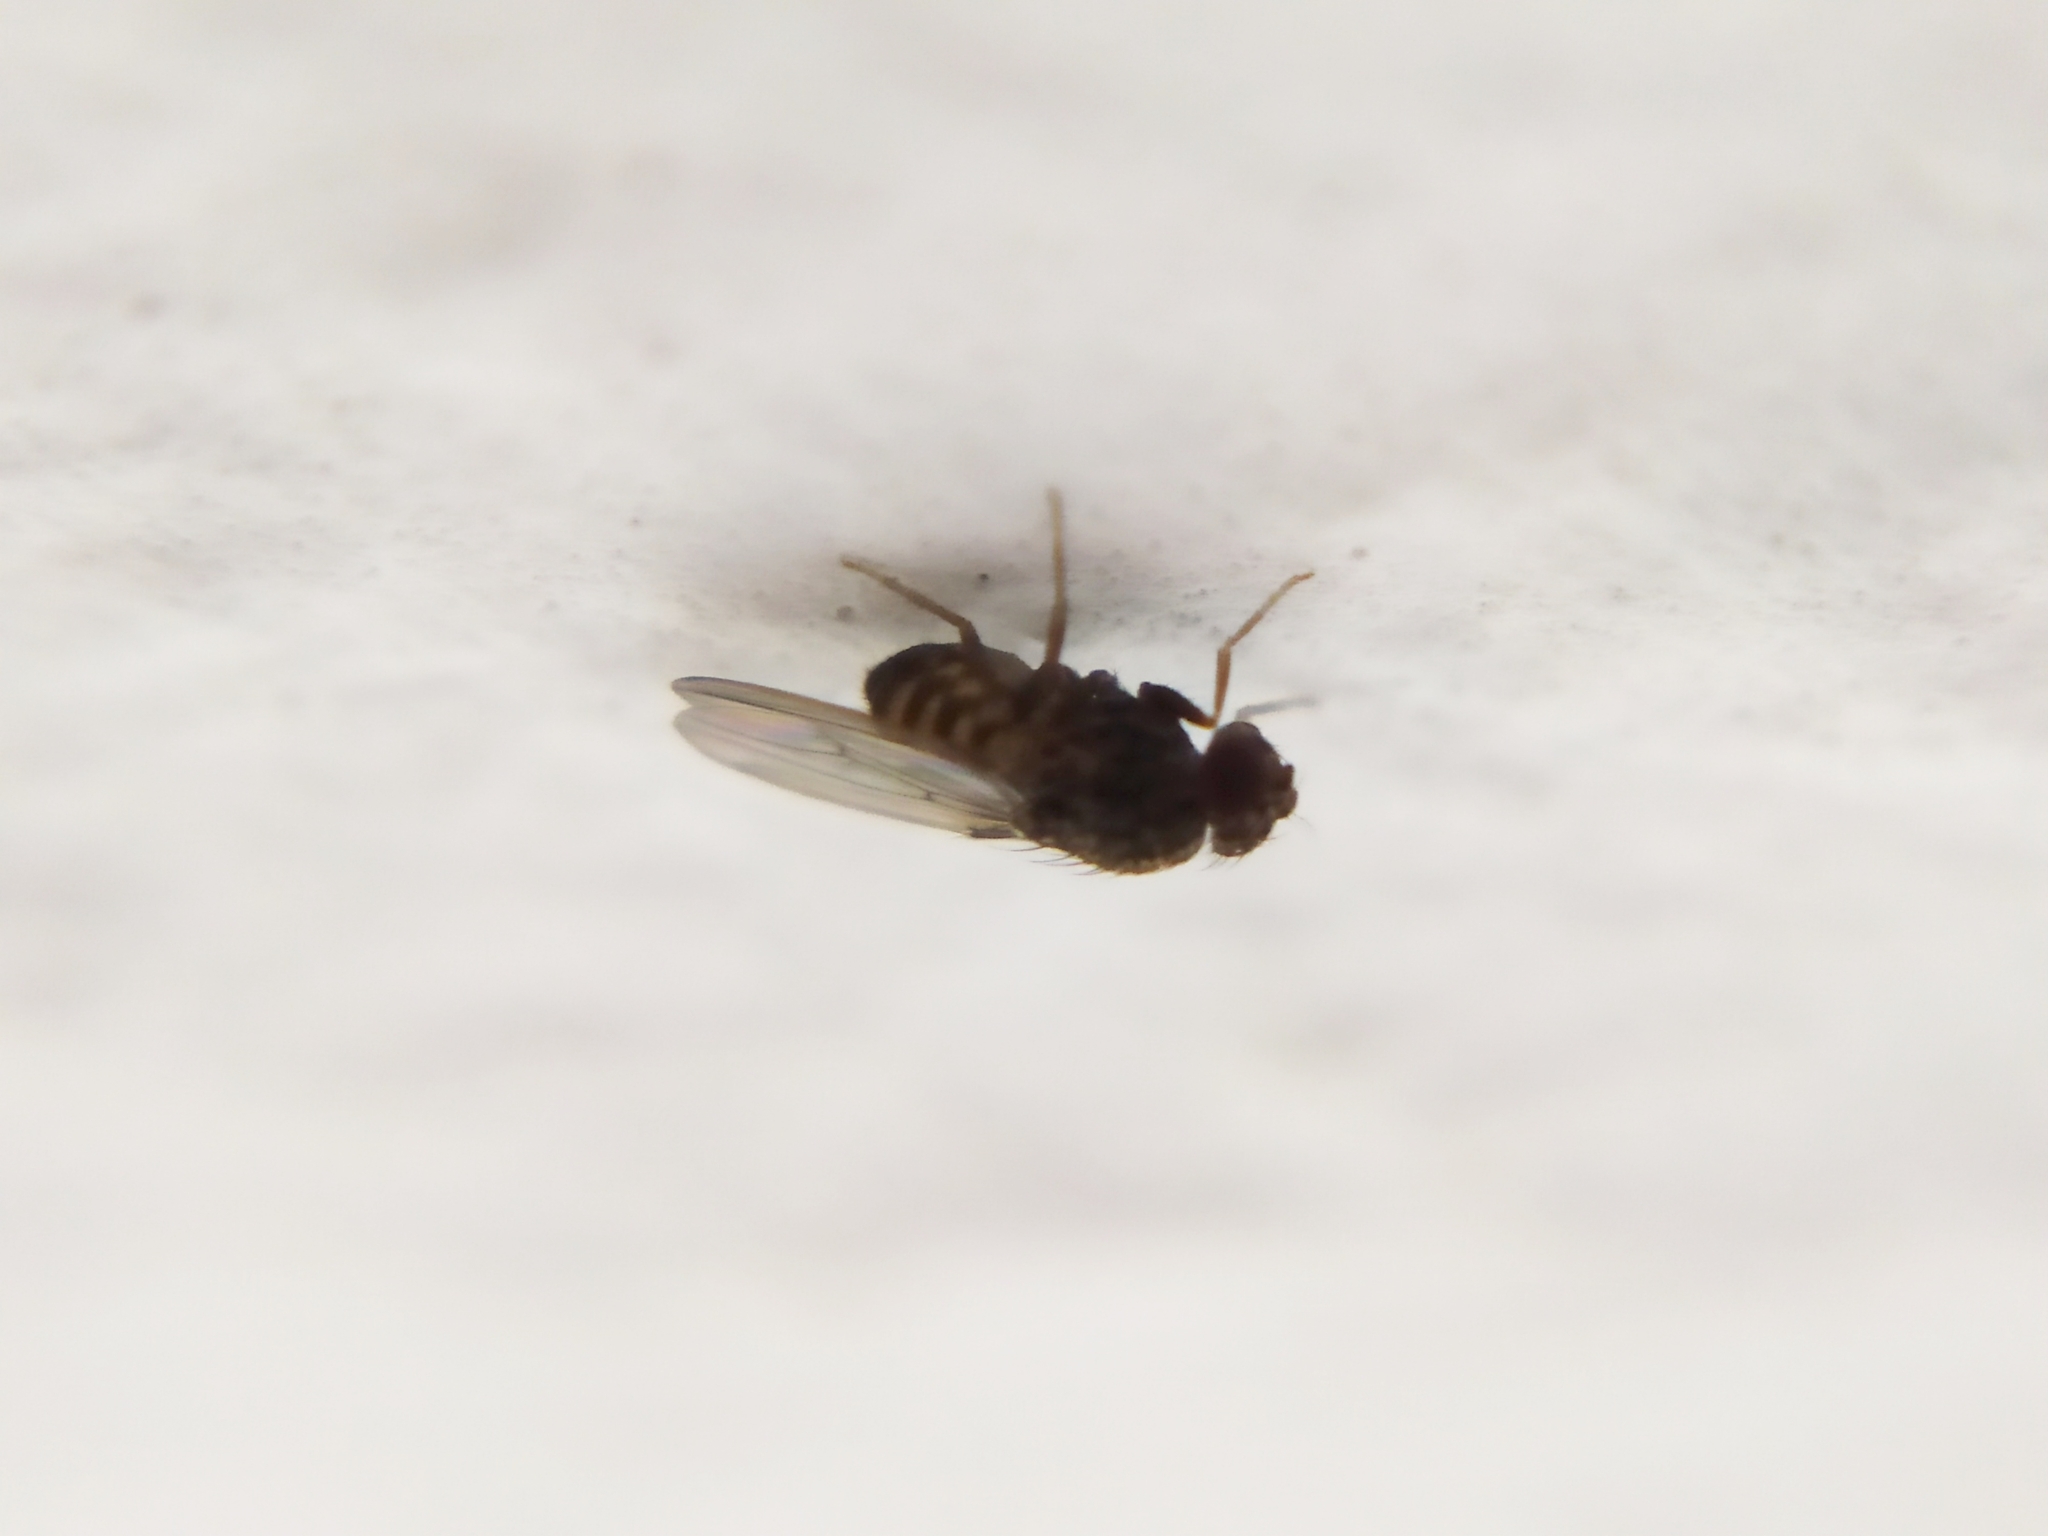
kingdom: Animalia
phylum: Arthropoda
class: Insecta
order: Diptera
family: Drosophilidae
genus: Drosophila
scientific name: Drosophila repleta
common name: Pomace fly
